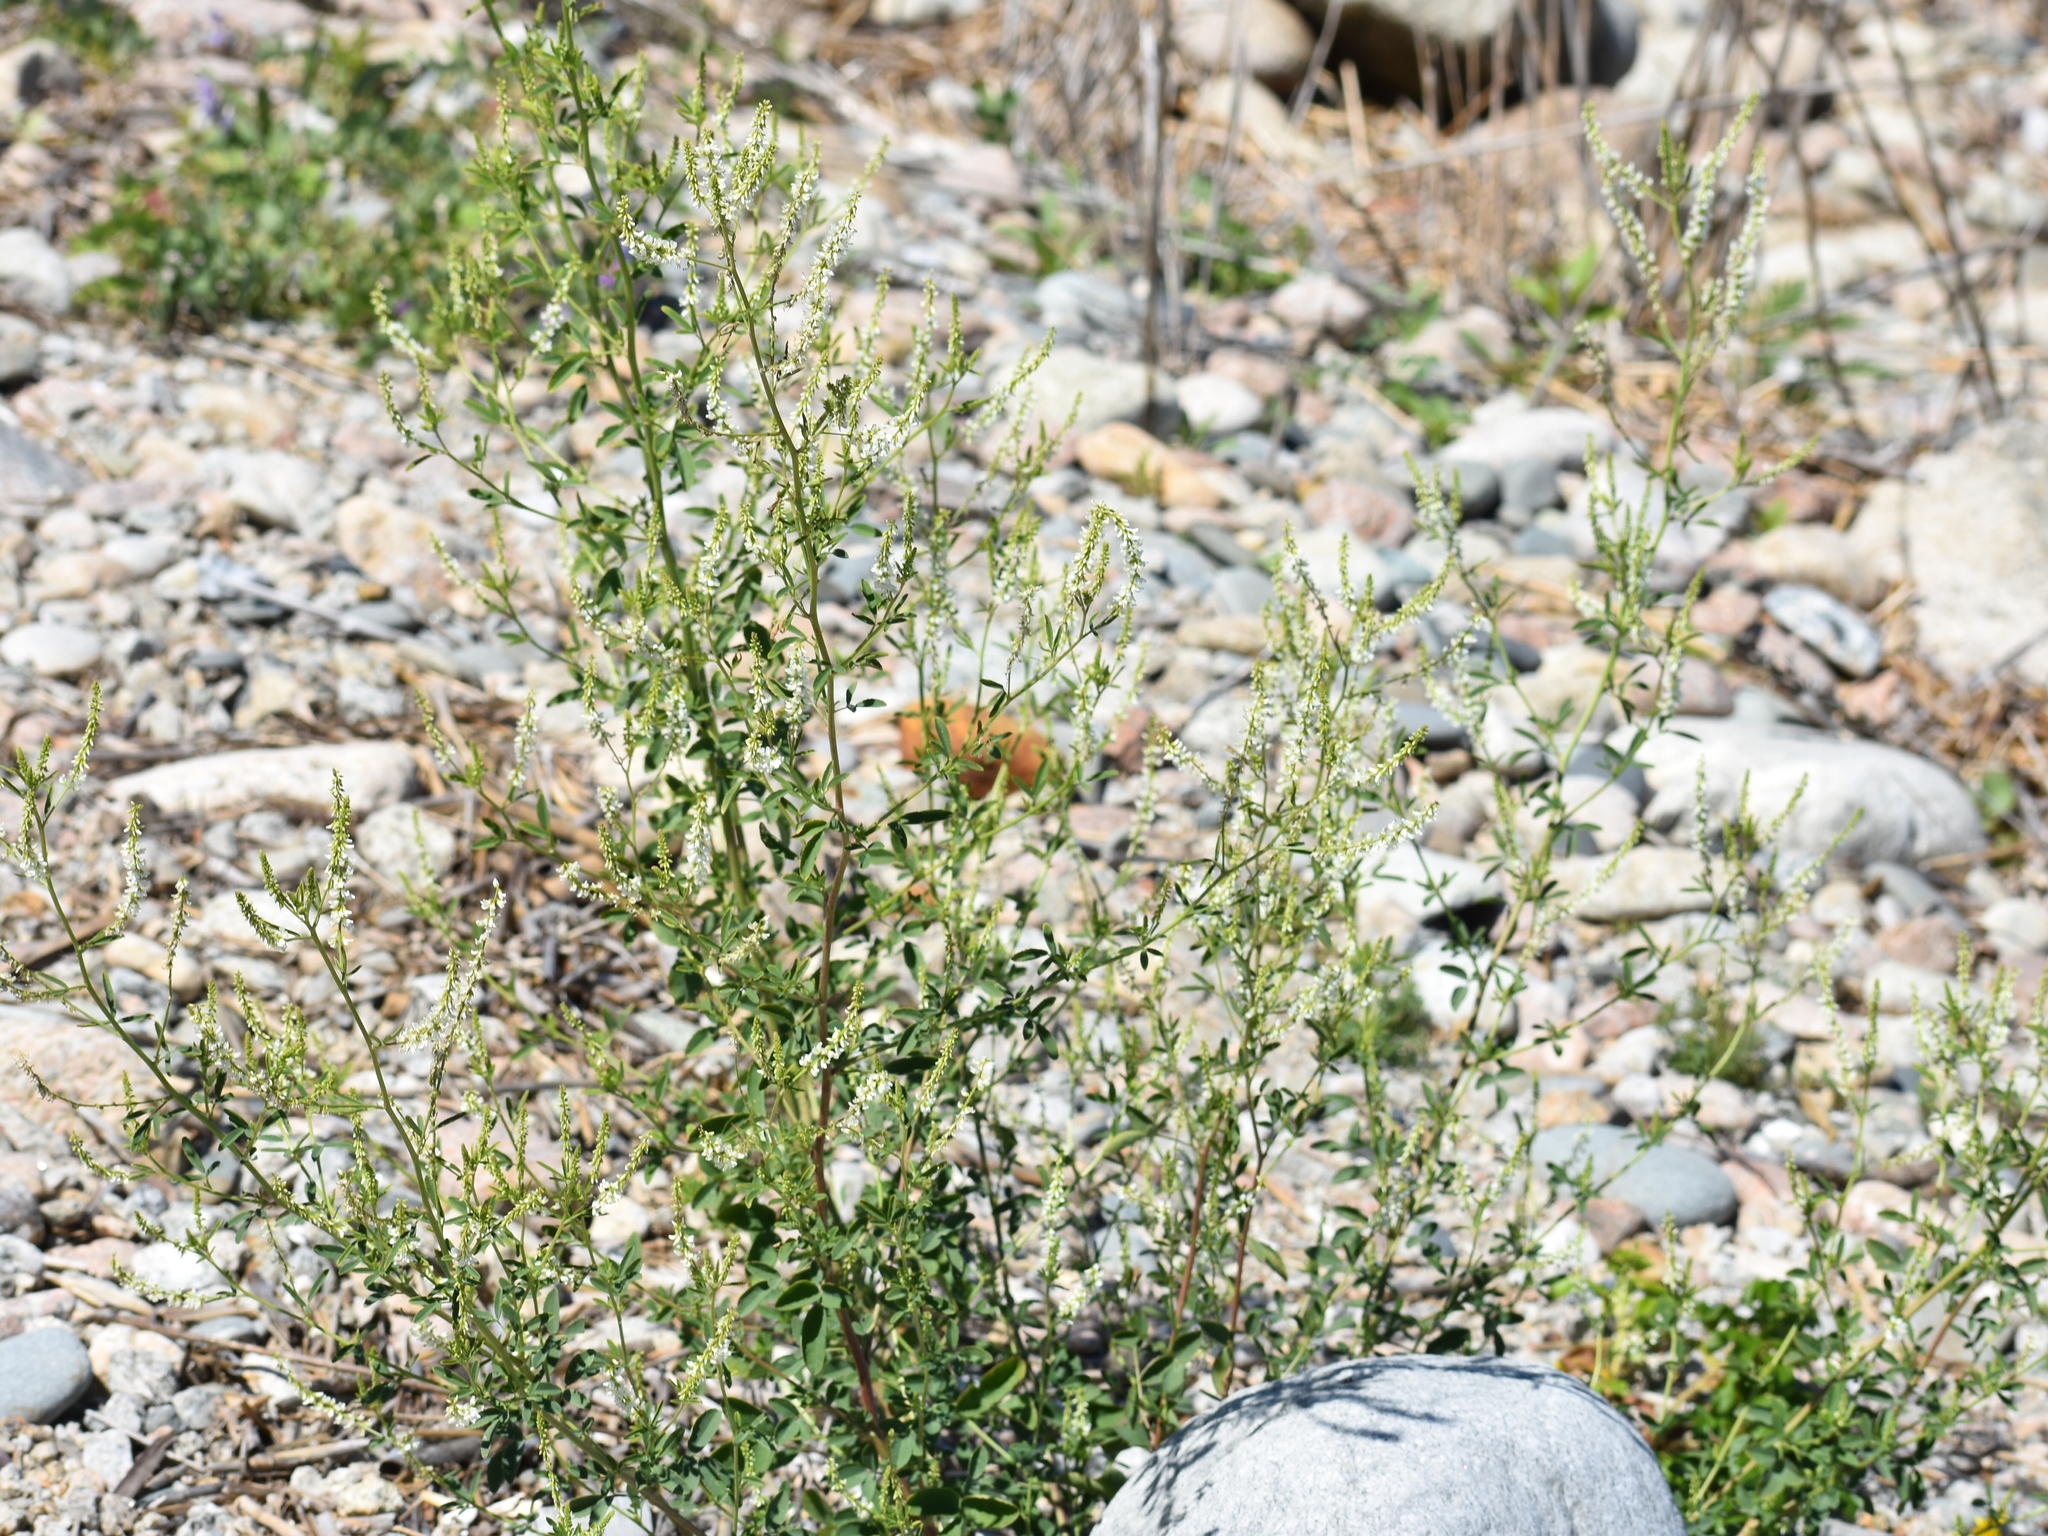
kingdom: Plantae
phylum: Tracheophyta
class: Magnoliopsida
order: Fabales
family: Fabaceae
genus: Melilotus
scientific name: Melilotus albus
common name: White melilot
